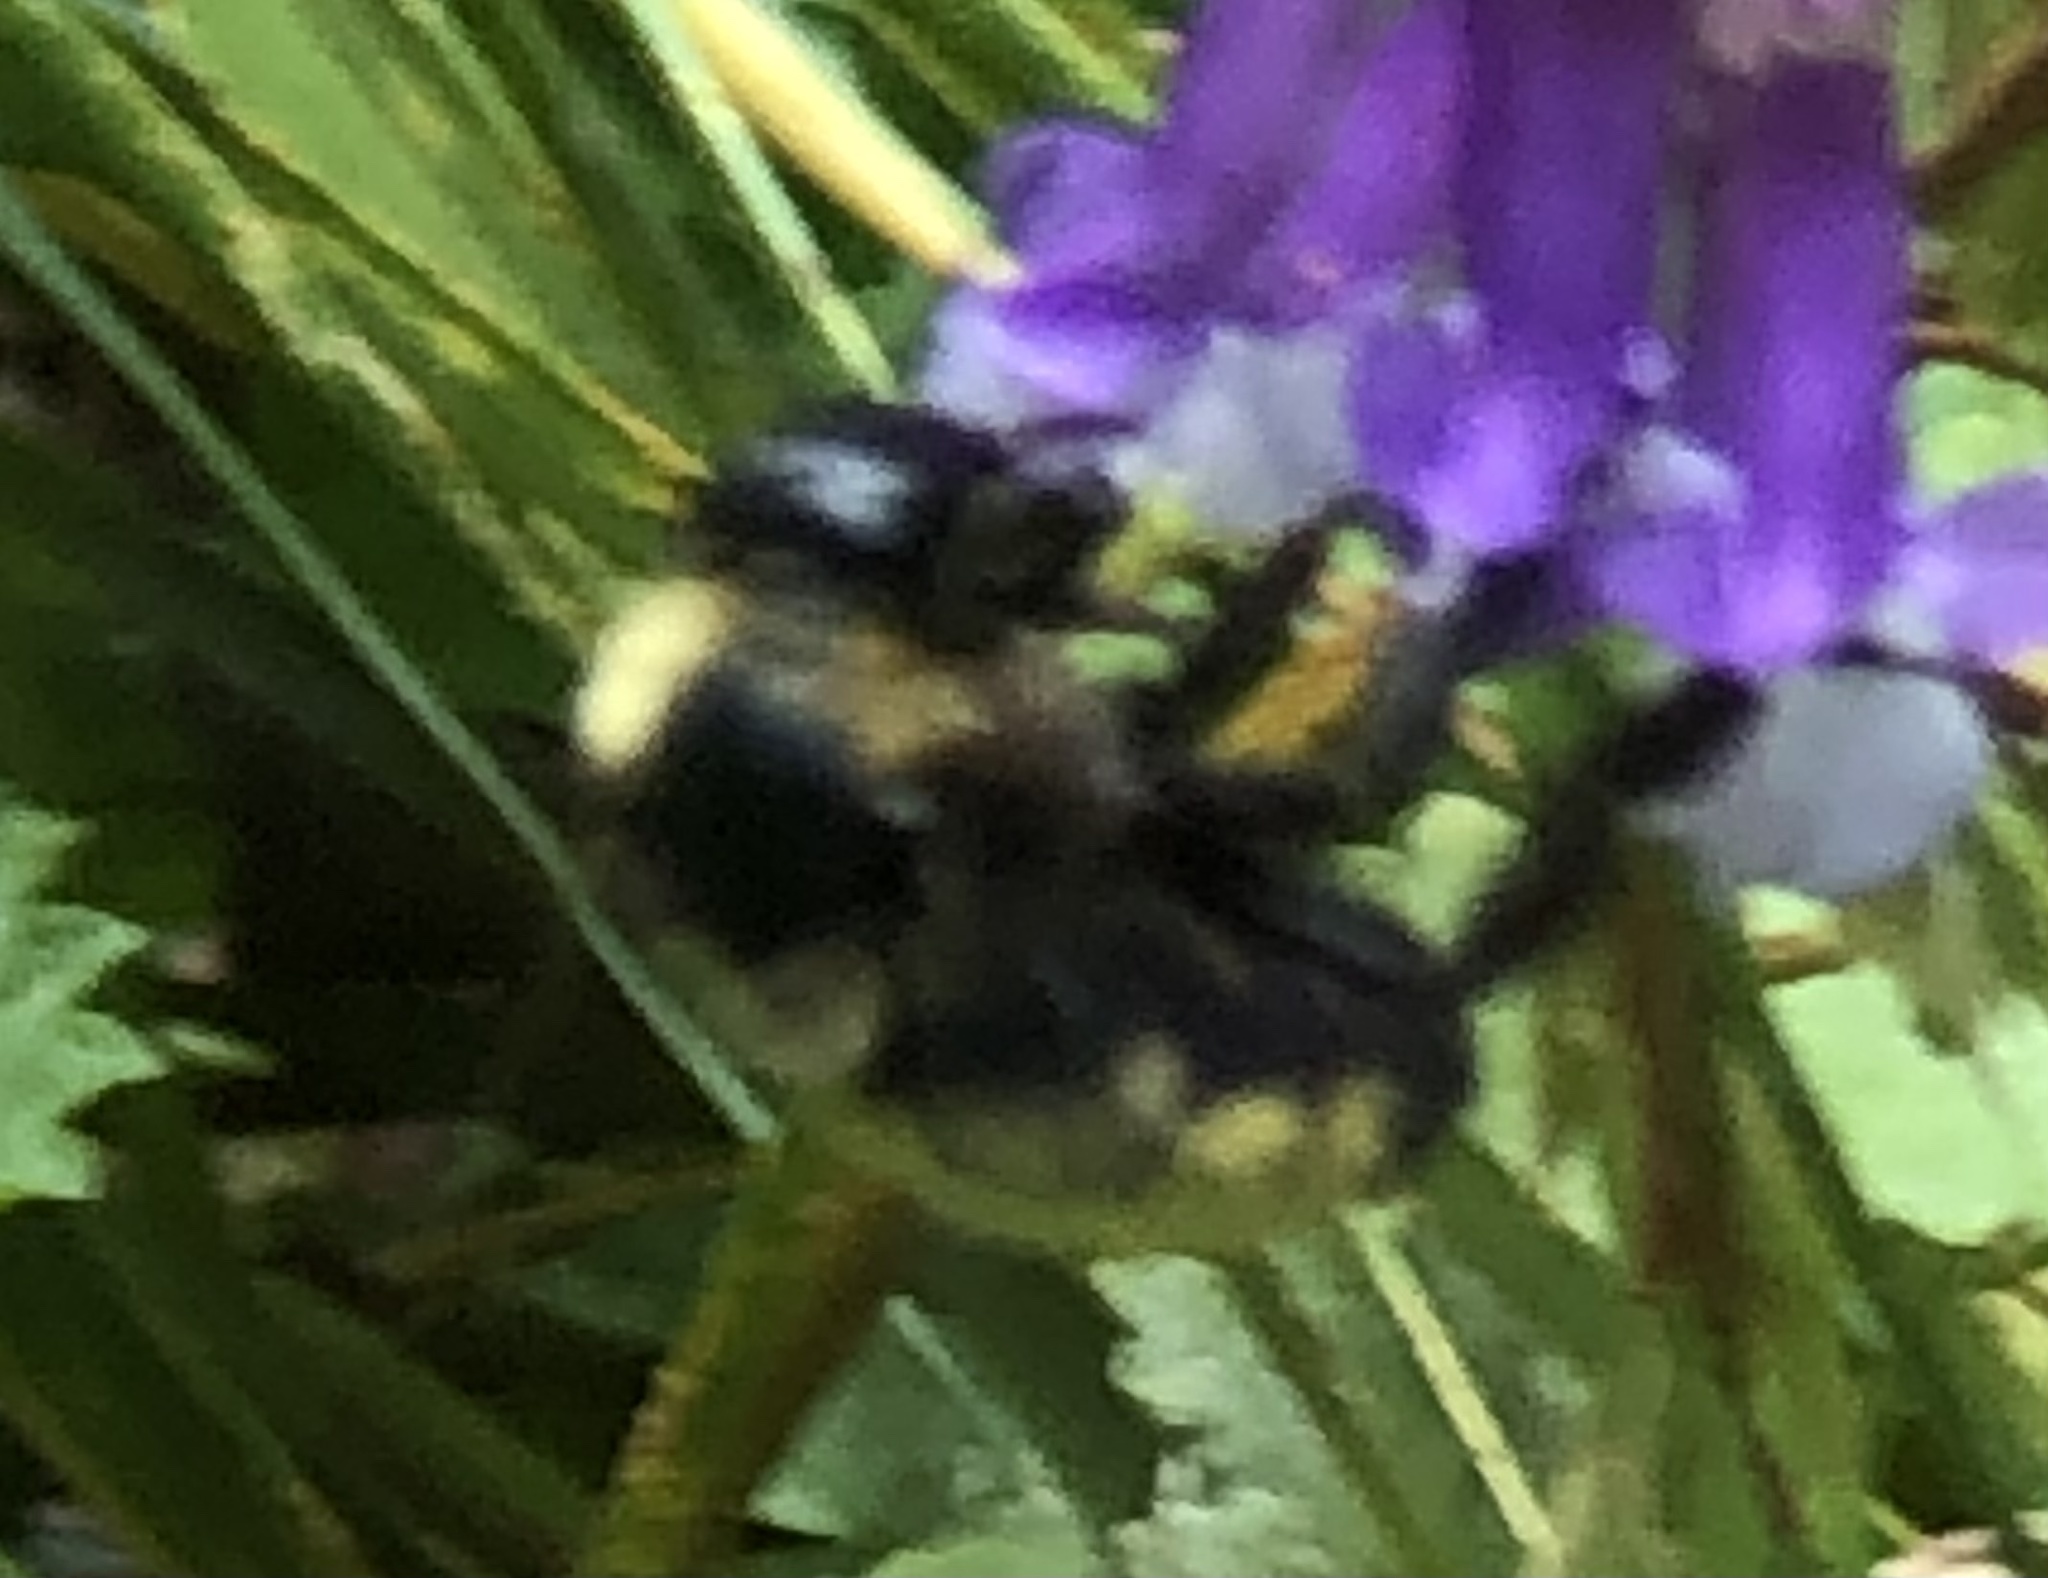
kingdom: Animalia
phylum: Arthropoda
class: Insecta
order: Hymenoptera
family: Apidae
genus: Bombus
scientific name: Bombus pensylvanicus
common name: Bumble bee
